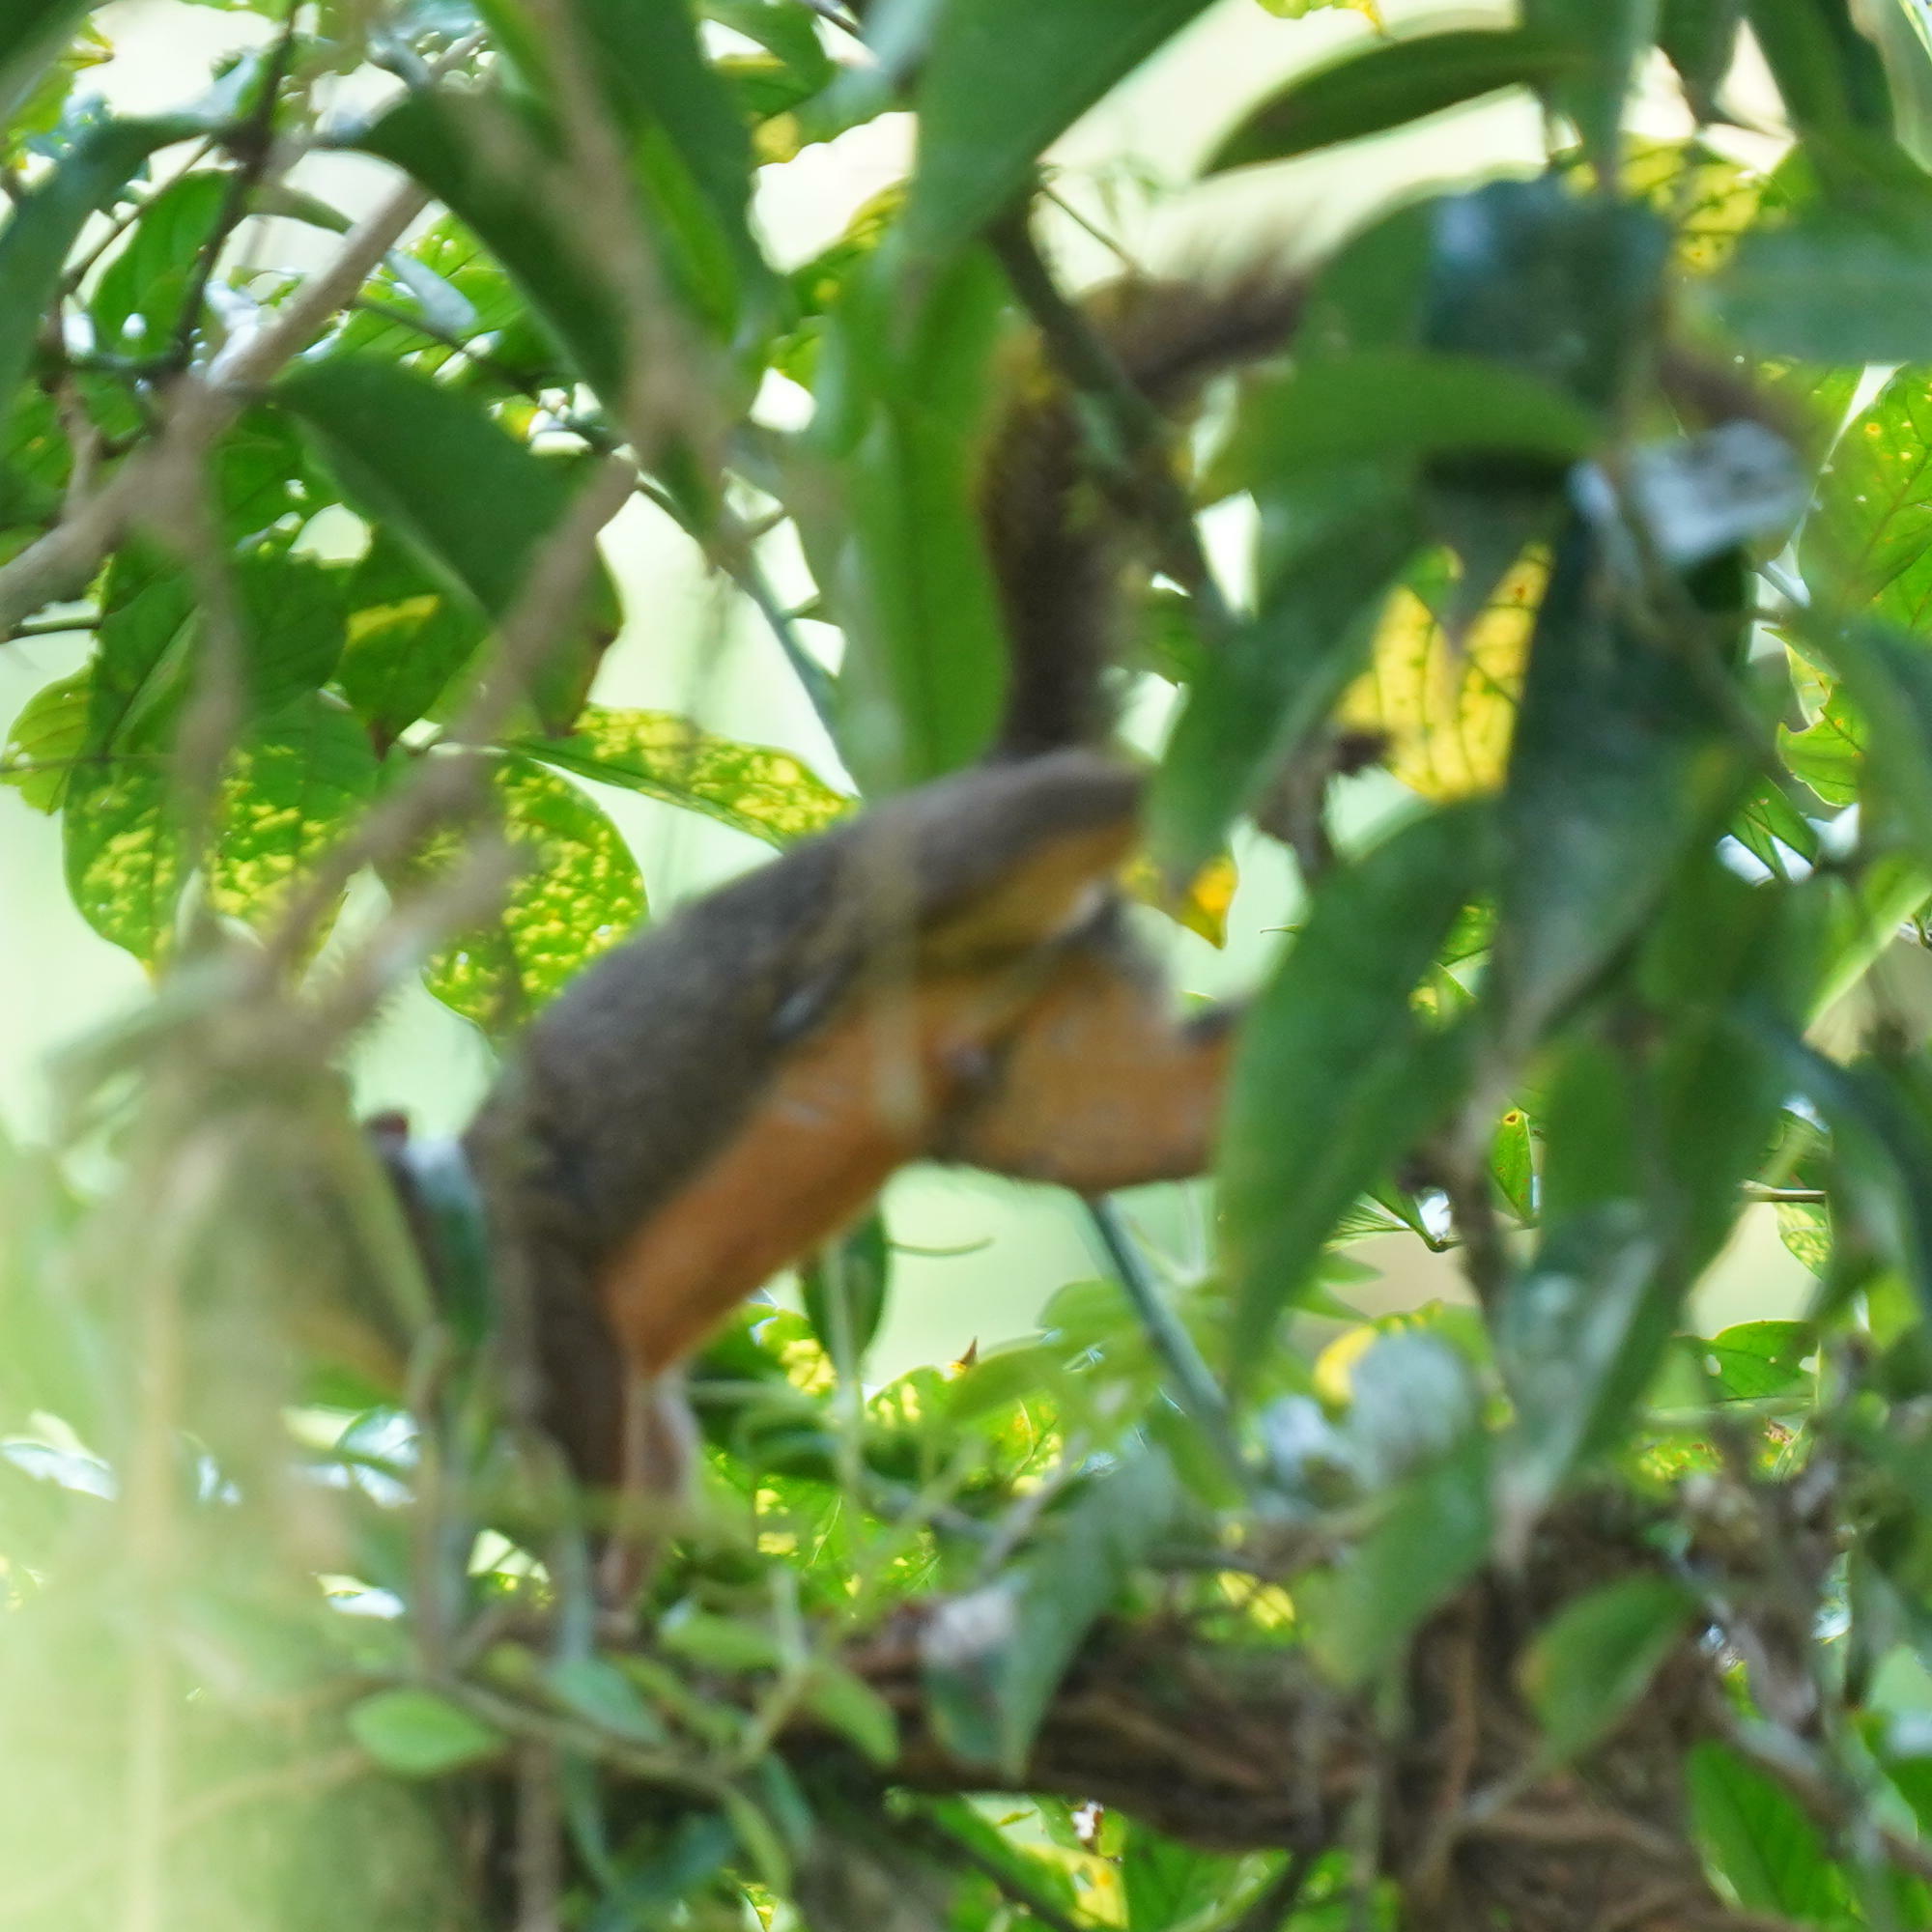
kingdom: Animalia
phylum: Chordata
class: Mammalia
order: Rodentia
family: Sciuridae
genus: Sciurus
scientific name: Sciurus granatensis
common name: Red-tailed squirrel
